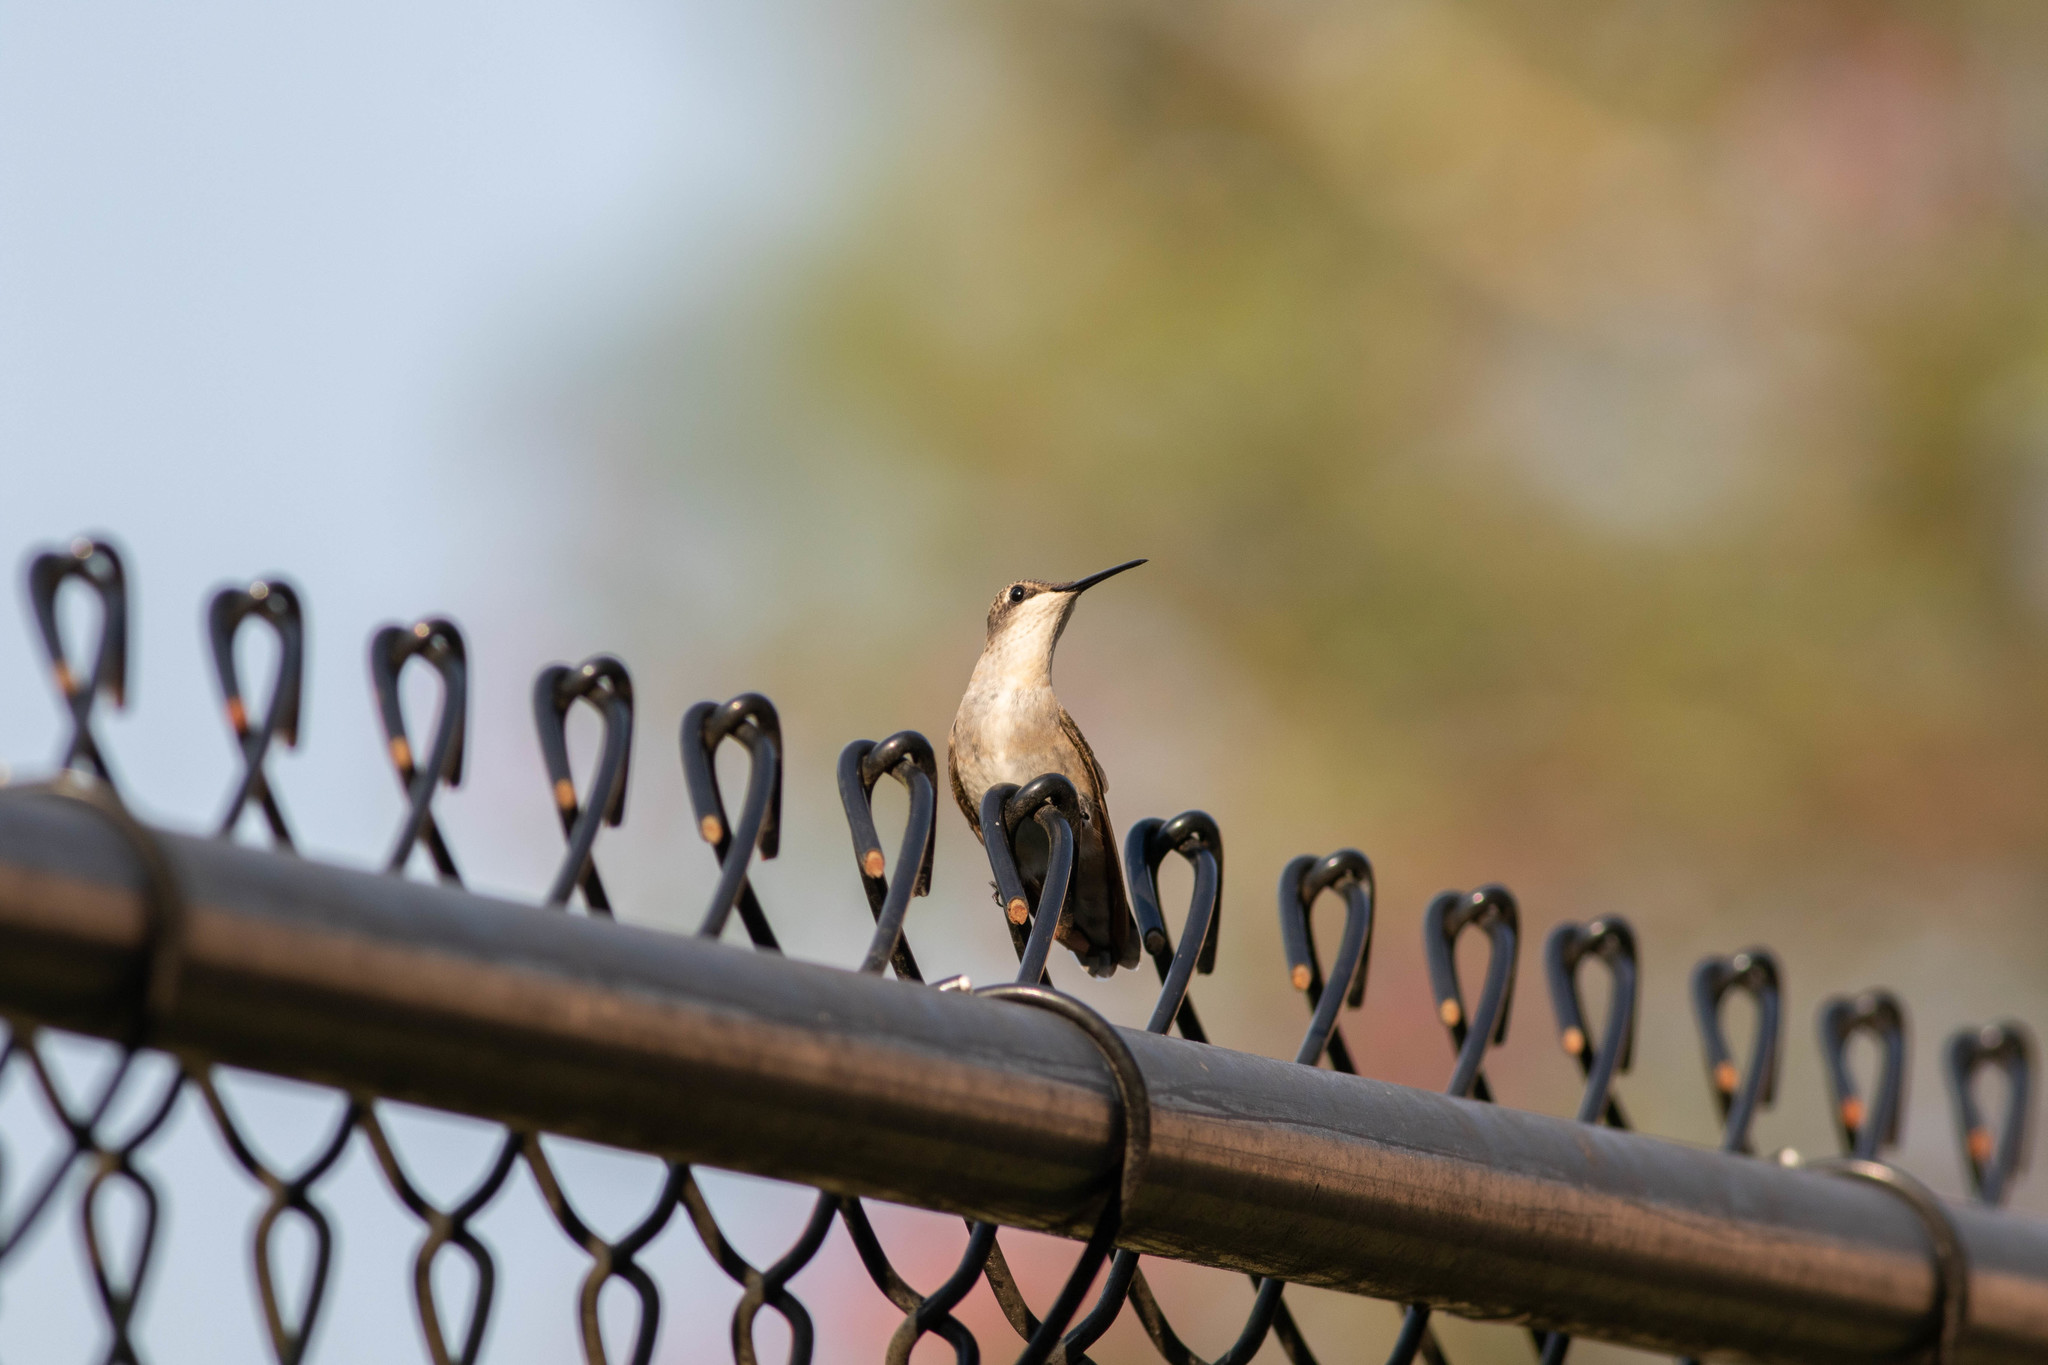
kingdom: Animalia
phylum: Chordata
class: Aves
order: Apodiformes
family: Trochilidae
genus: Archilochus
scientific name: Archilochus colubris
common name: Ruby-throated hummingbird
